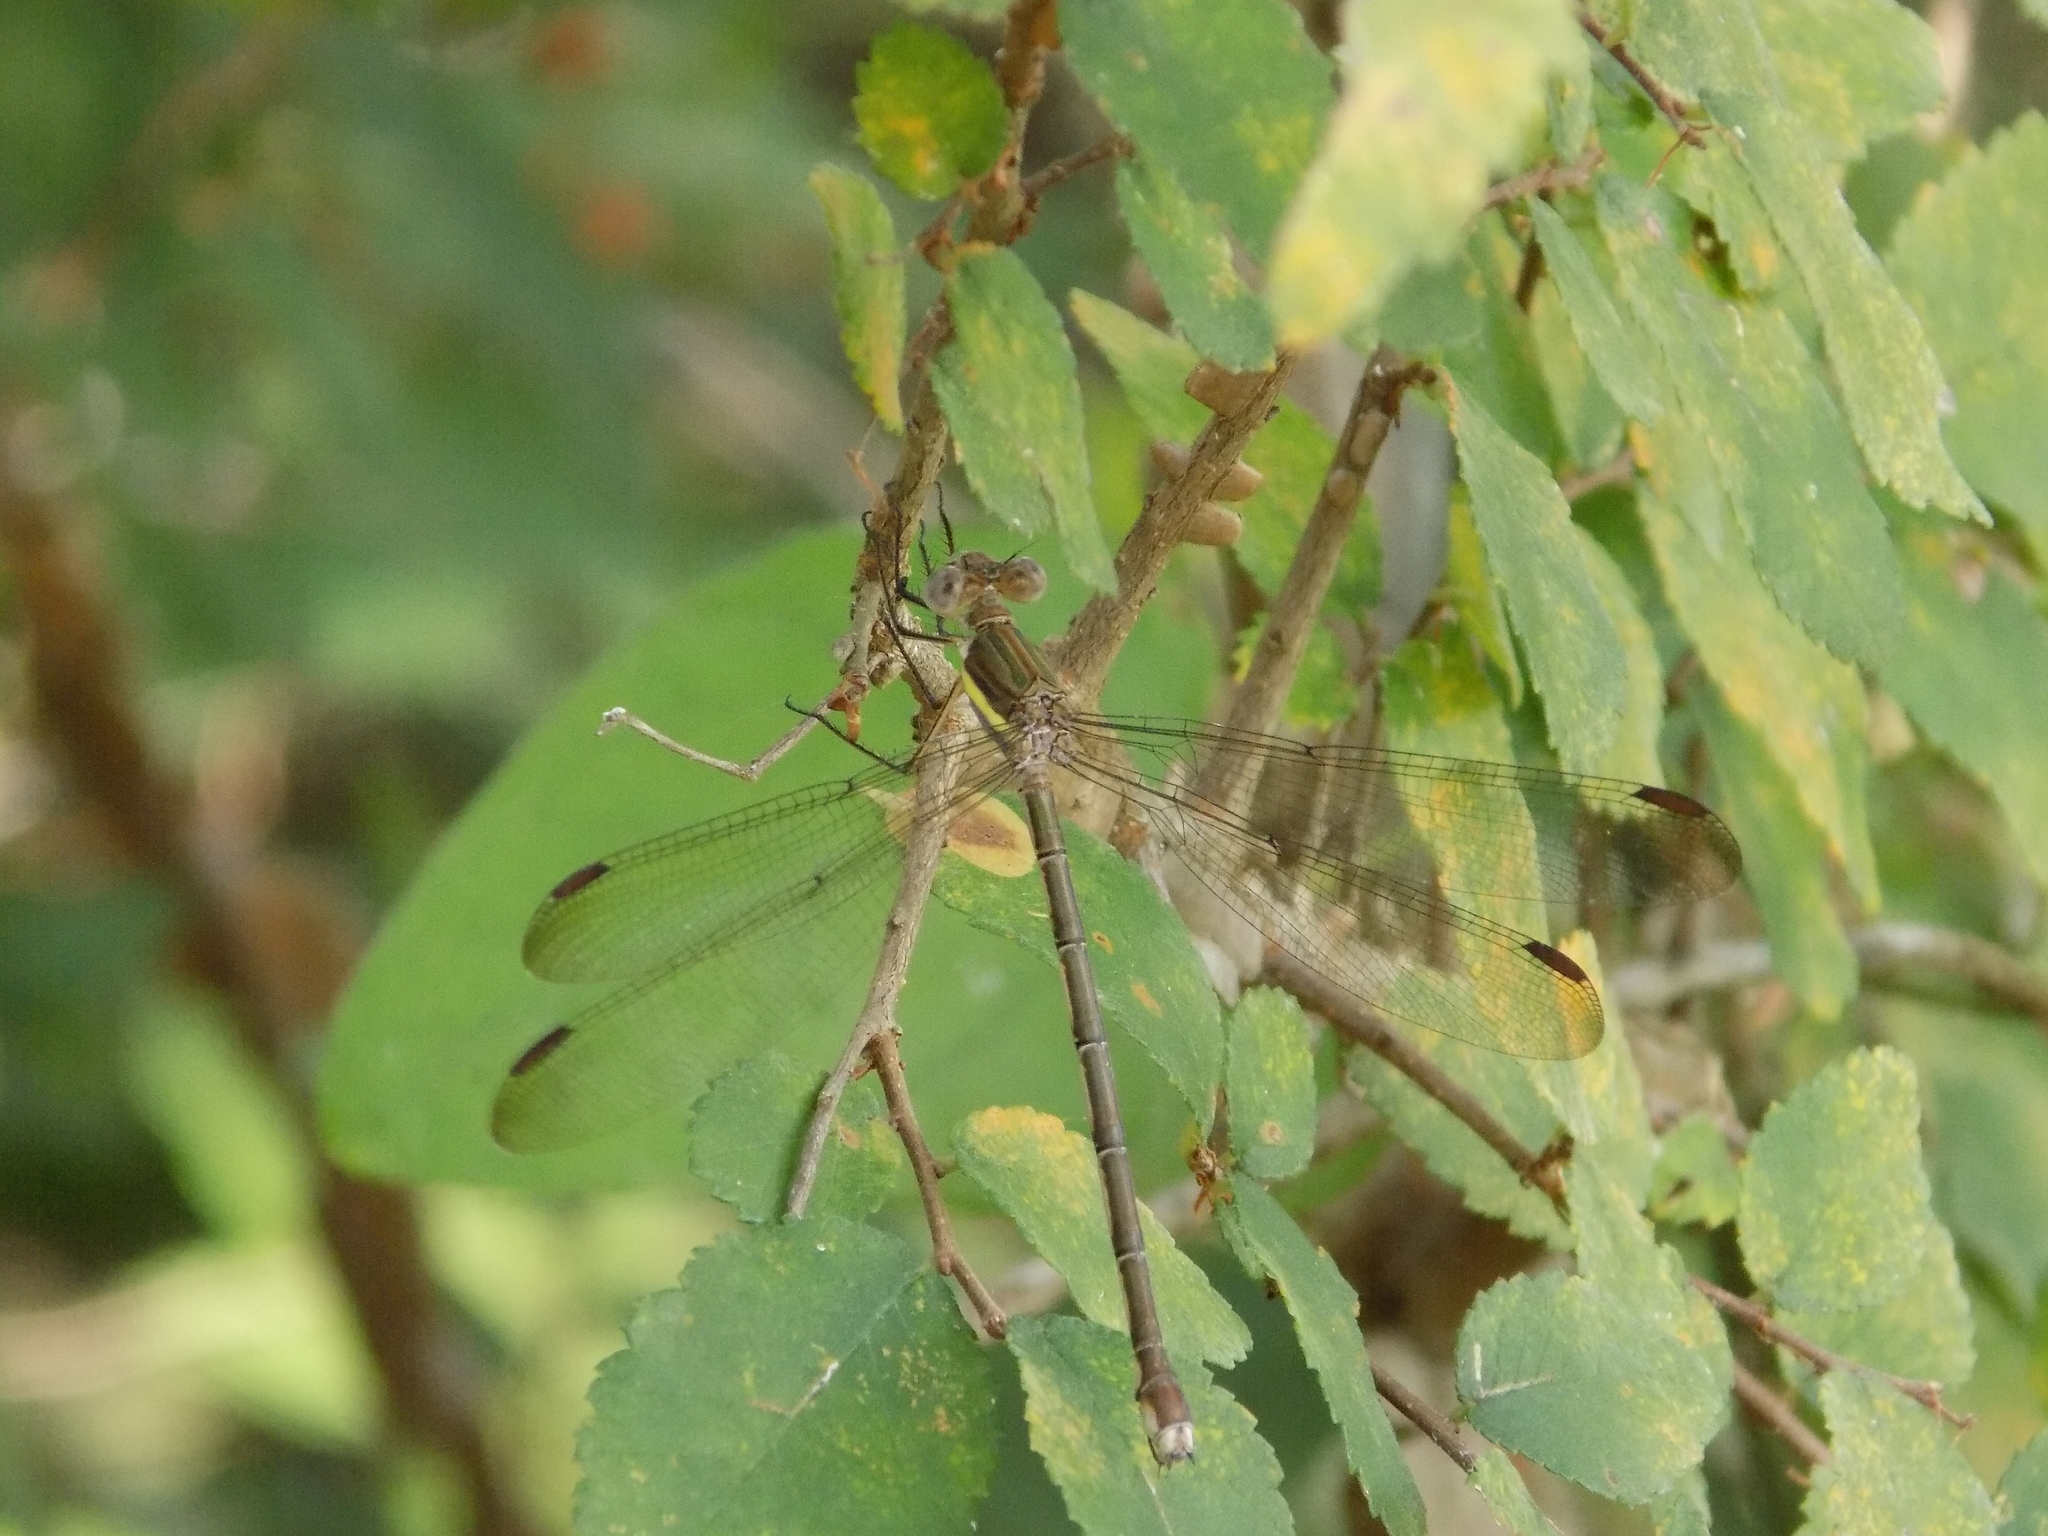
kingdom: Animalia
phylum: Arthropoda
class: Insecta
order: Odonata
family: Lestidae
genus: Archilestes
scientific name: Archilestes grandis
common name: Great spreadwing
